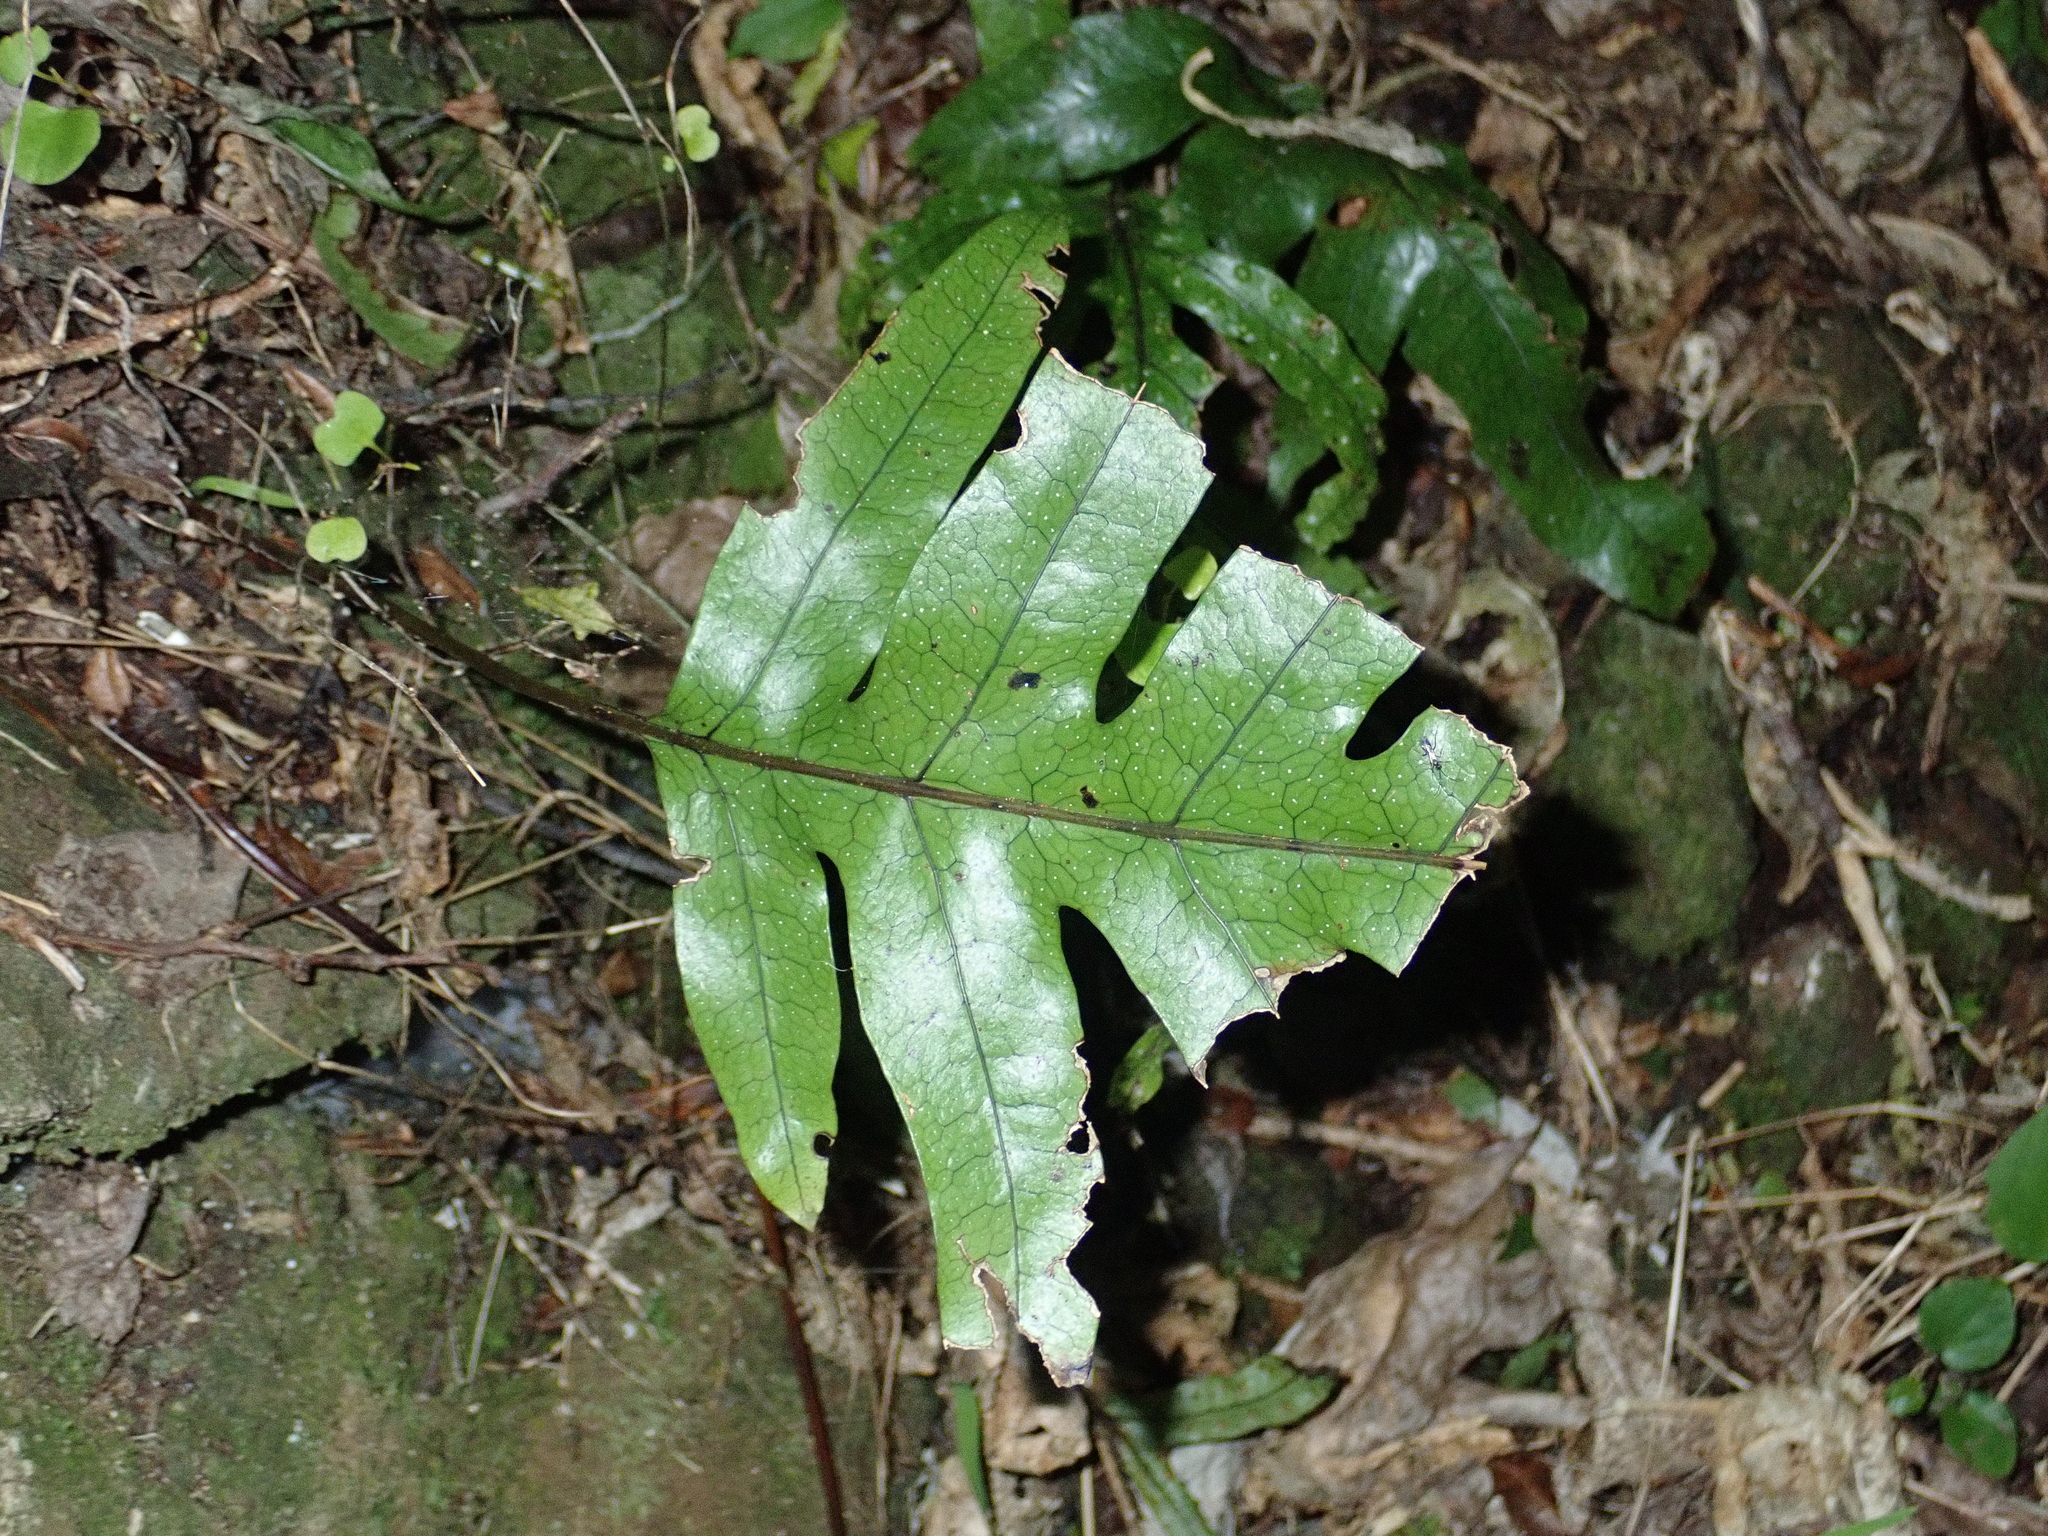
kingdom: Plantae
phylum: Tracheophyta
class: Polypodiopsida
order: Polypodiales
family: Polypodiaceae
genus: Lecanopteris
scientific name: Lecanopteris pustulata
